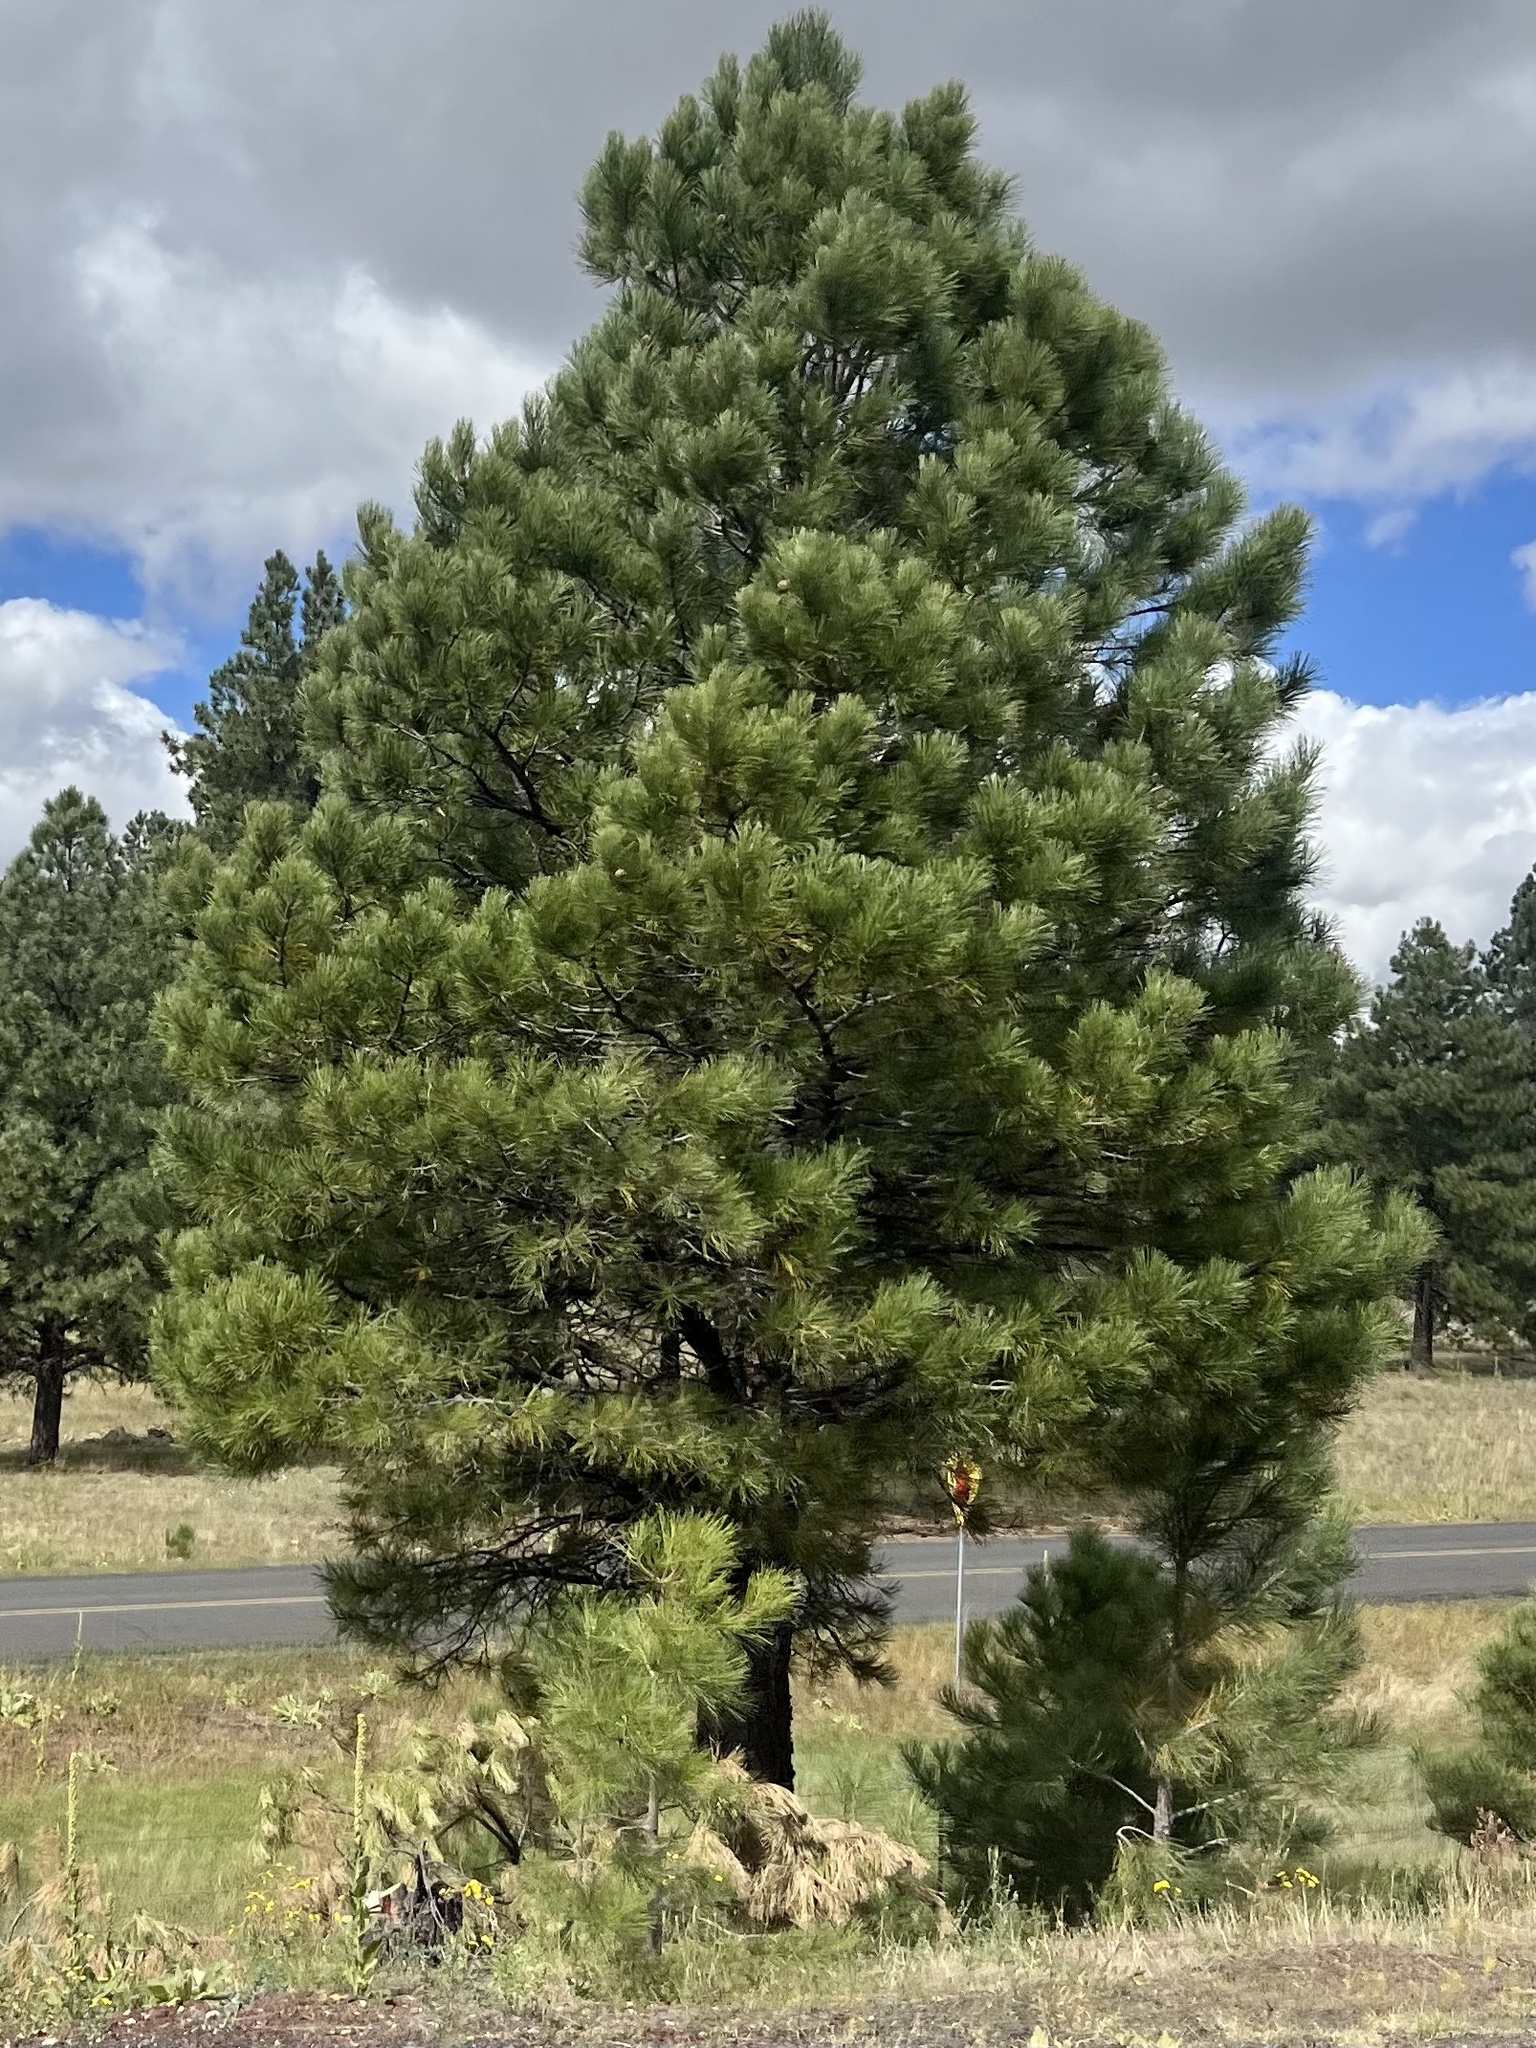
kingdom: Plantae
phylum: Tracheophyta
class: Pinopsida
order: Pinales
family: Pinaceae
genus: Pinus
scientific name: Pinus ponderosa
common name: Western yellow-pine
